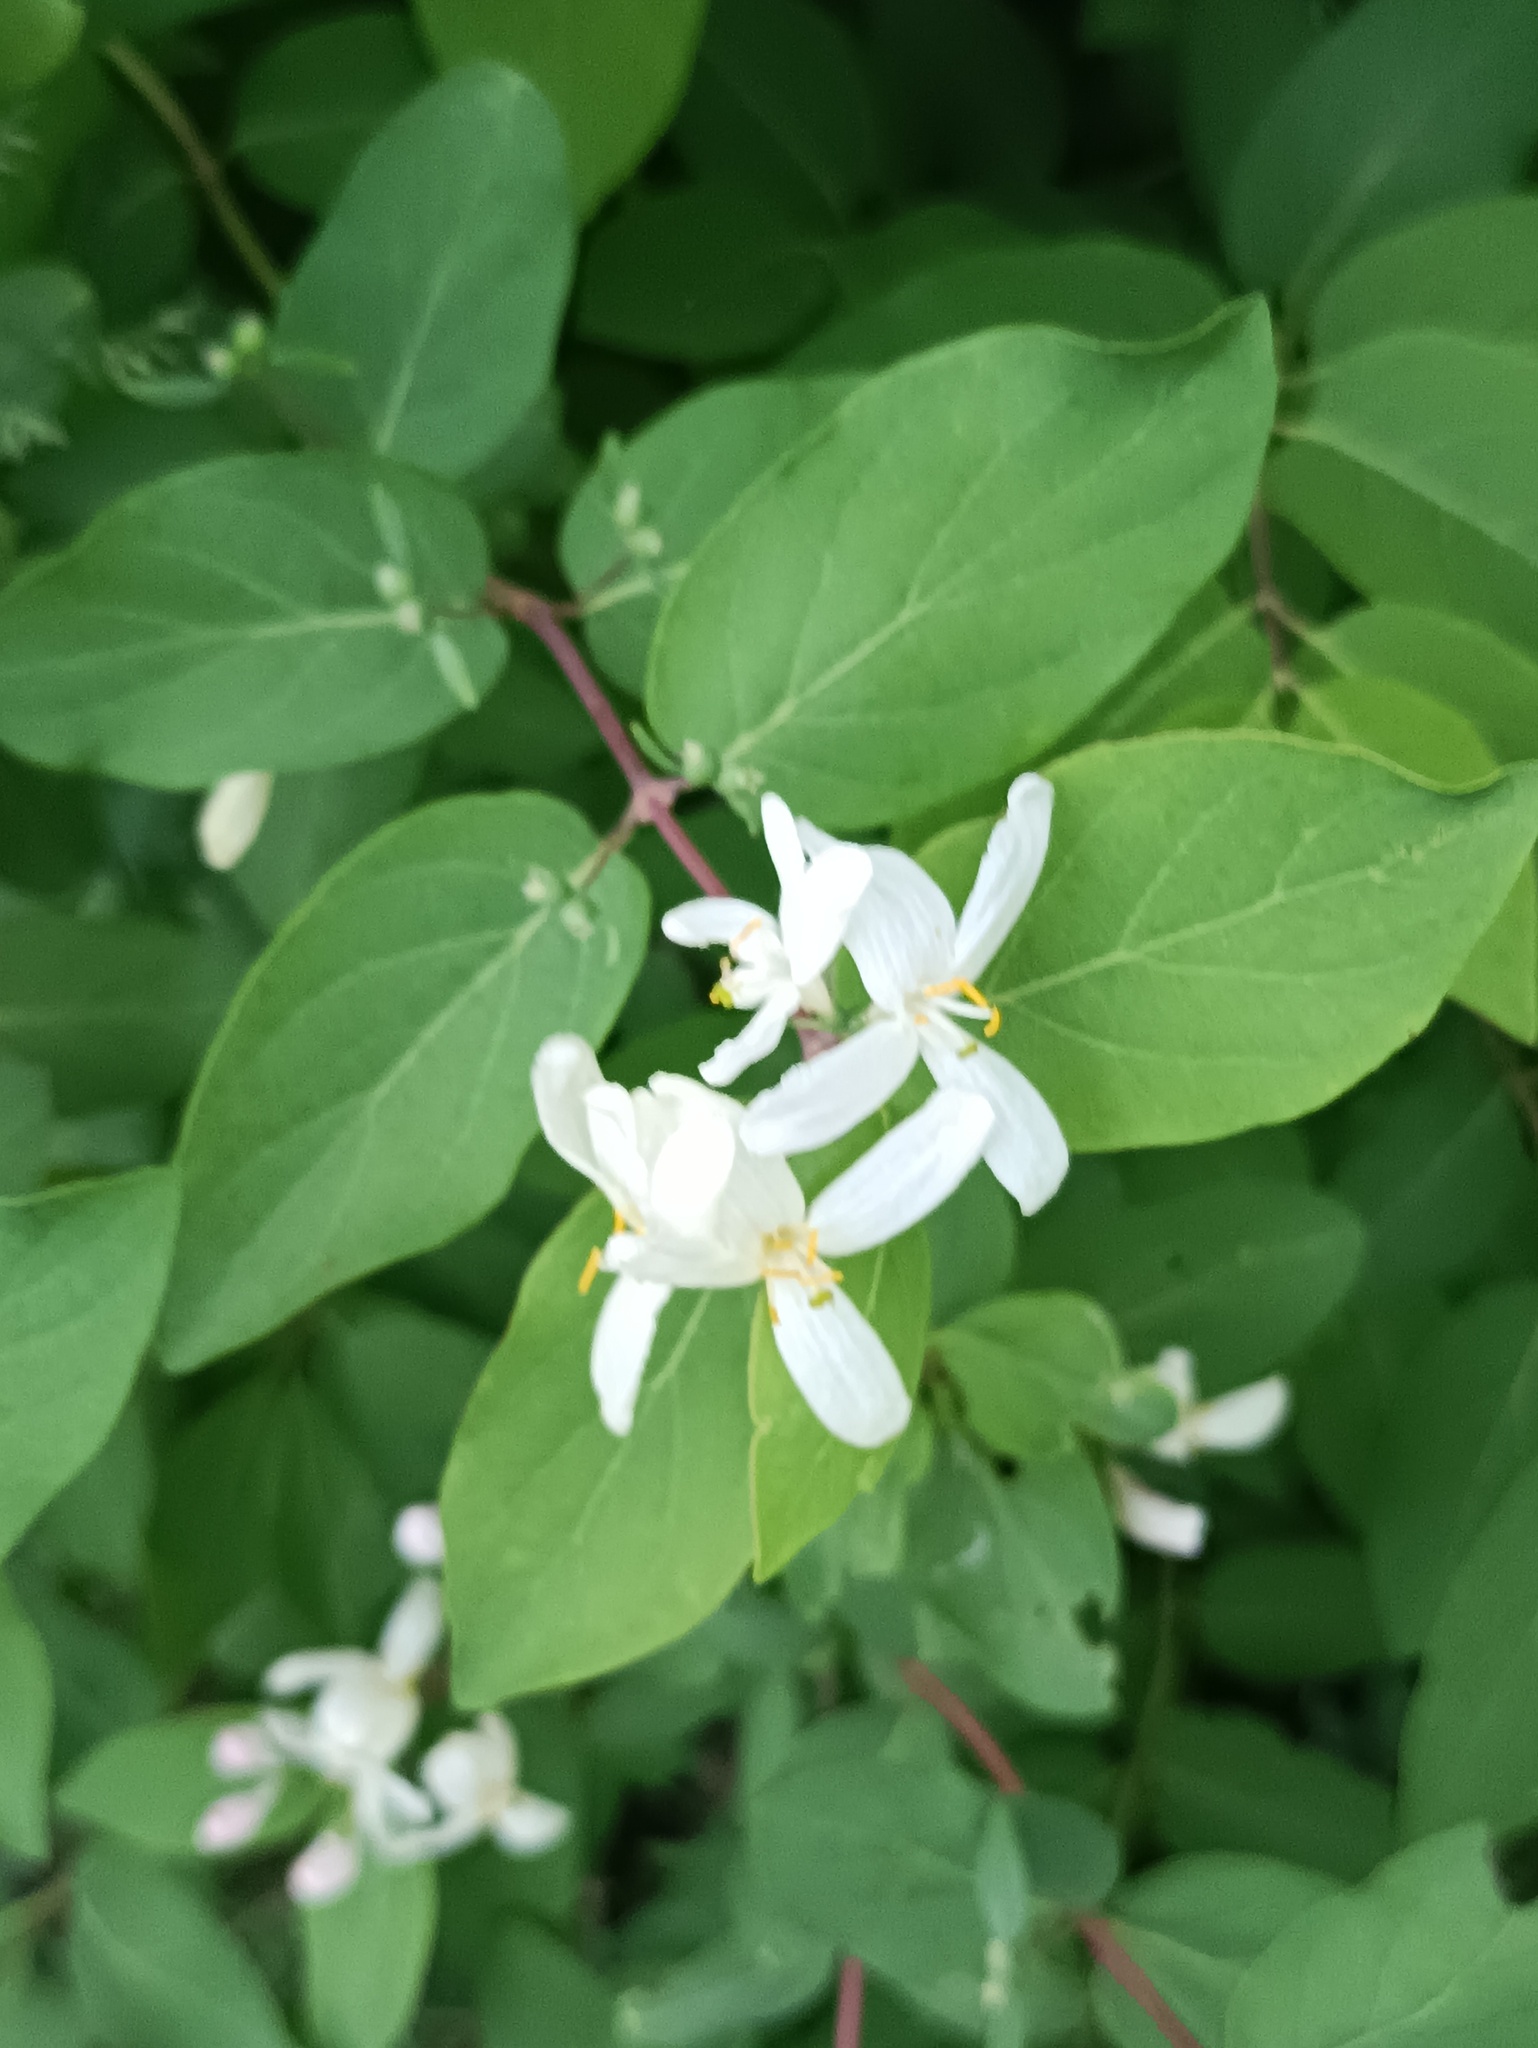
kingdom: Plantae
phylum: Tracheophyta
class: Magnoliopsida
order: Dipsacales
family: Caprifoliaceae
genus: Lonicera
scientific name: Lonicera tatarica
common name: Tatarian honeysuckle
